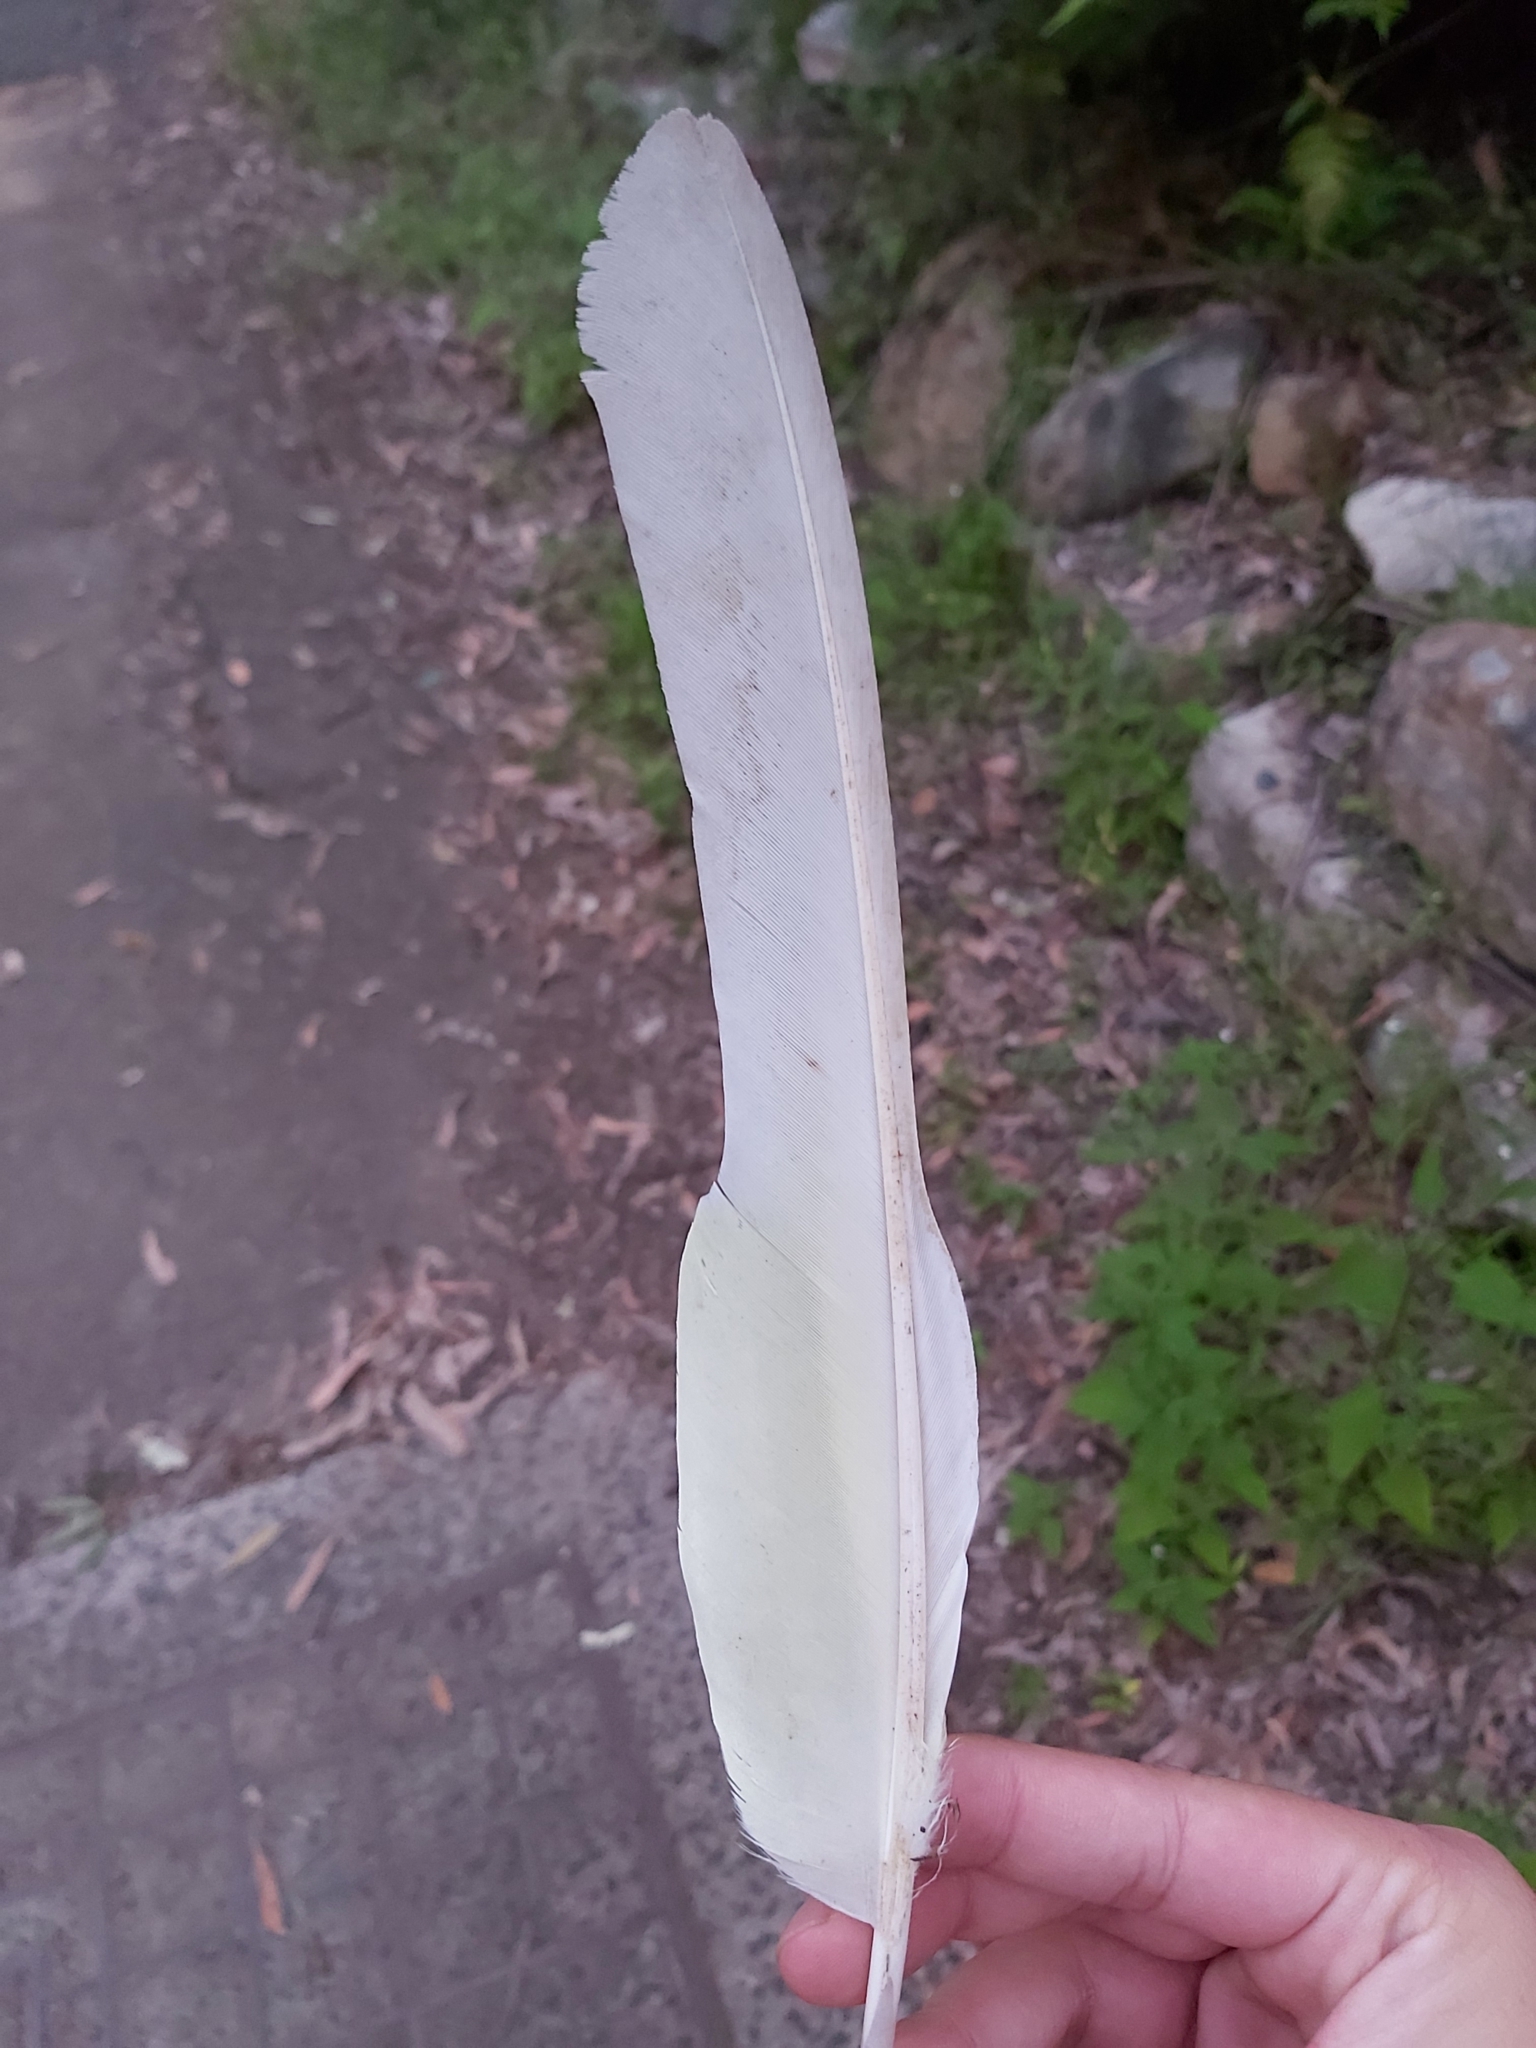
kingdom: Animalia
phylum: Chordata
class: Aves
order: Psittaciformes
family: Psittacidae
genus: Cacatua
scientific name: Cacatua galerita
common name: Sulphur-crested cockatoo
